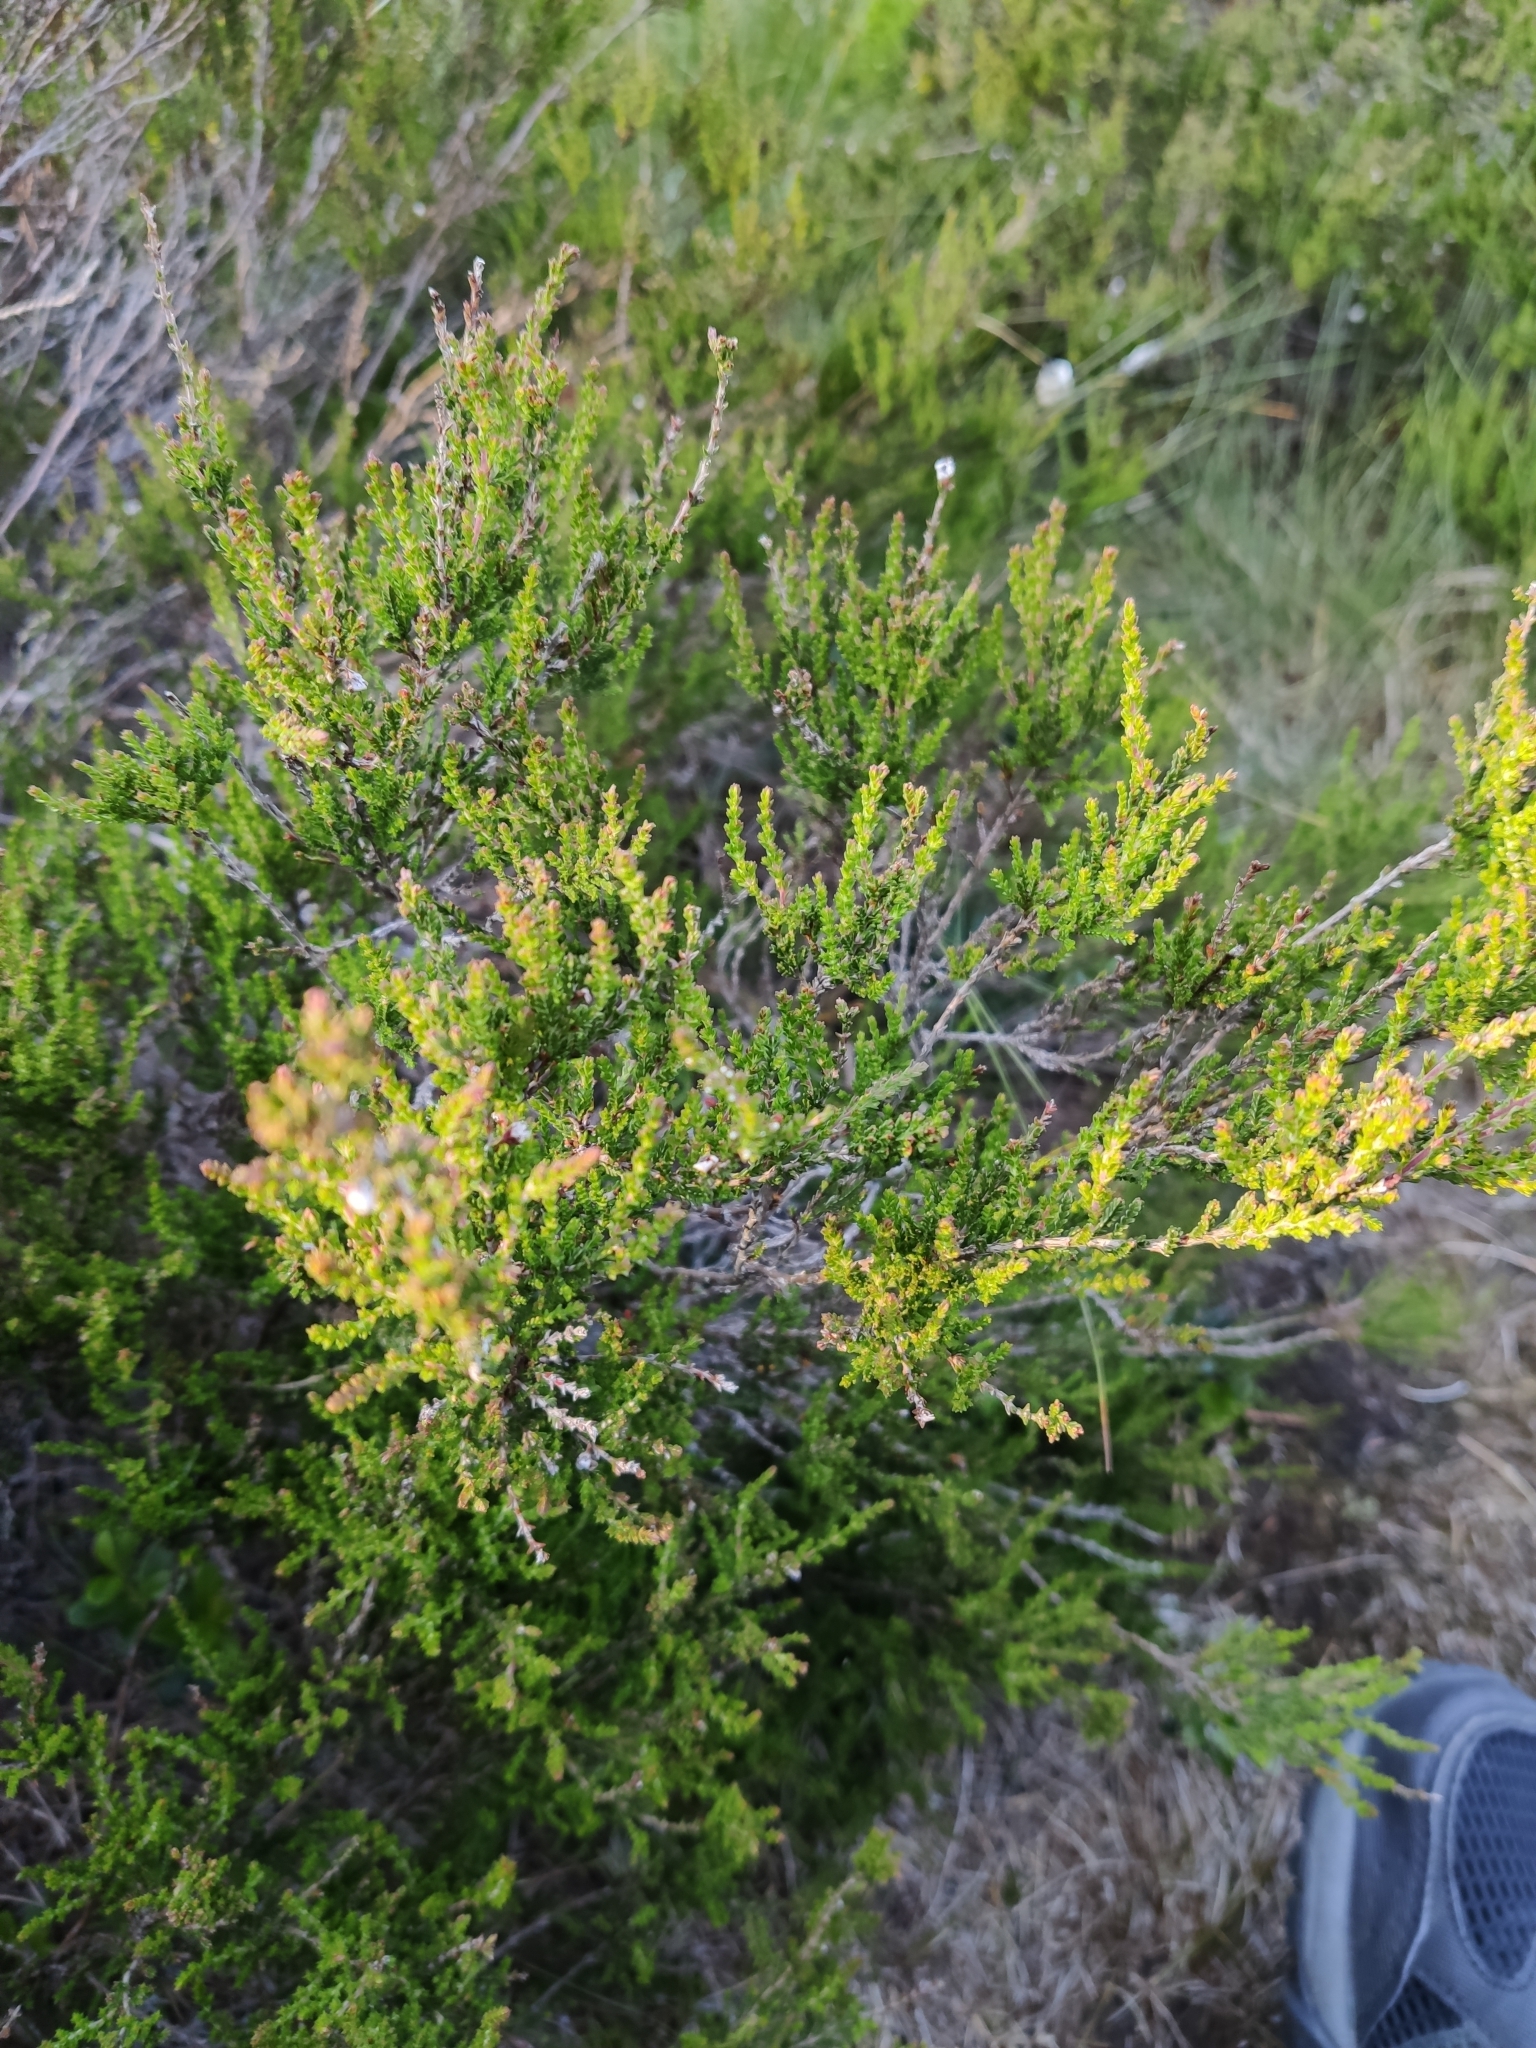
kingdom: Plantae
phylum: Tracheophyta
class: Magnoliopsida
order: Ericales
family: Ericaceae
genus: Calluna
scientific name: Calluna vulgaris
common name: Heather
